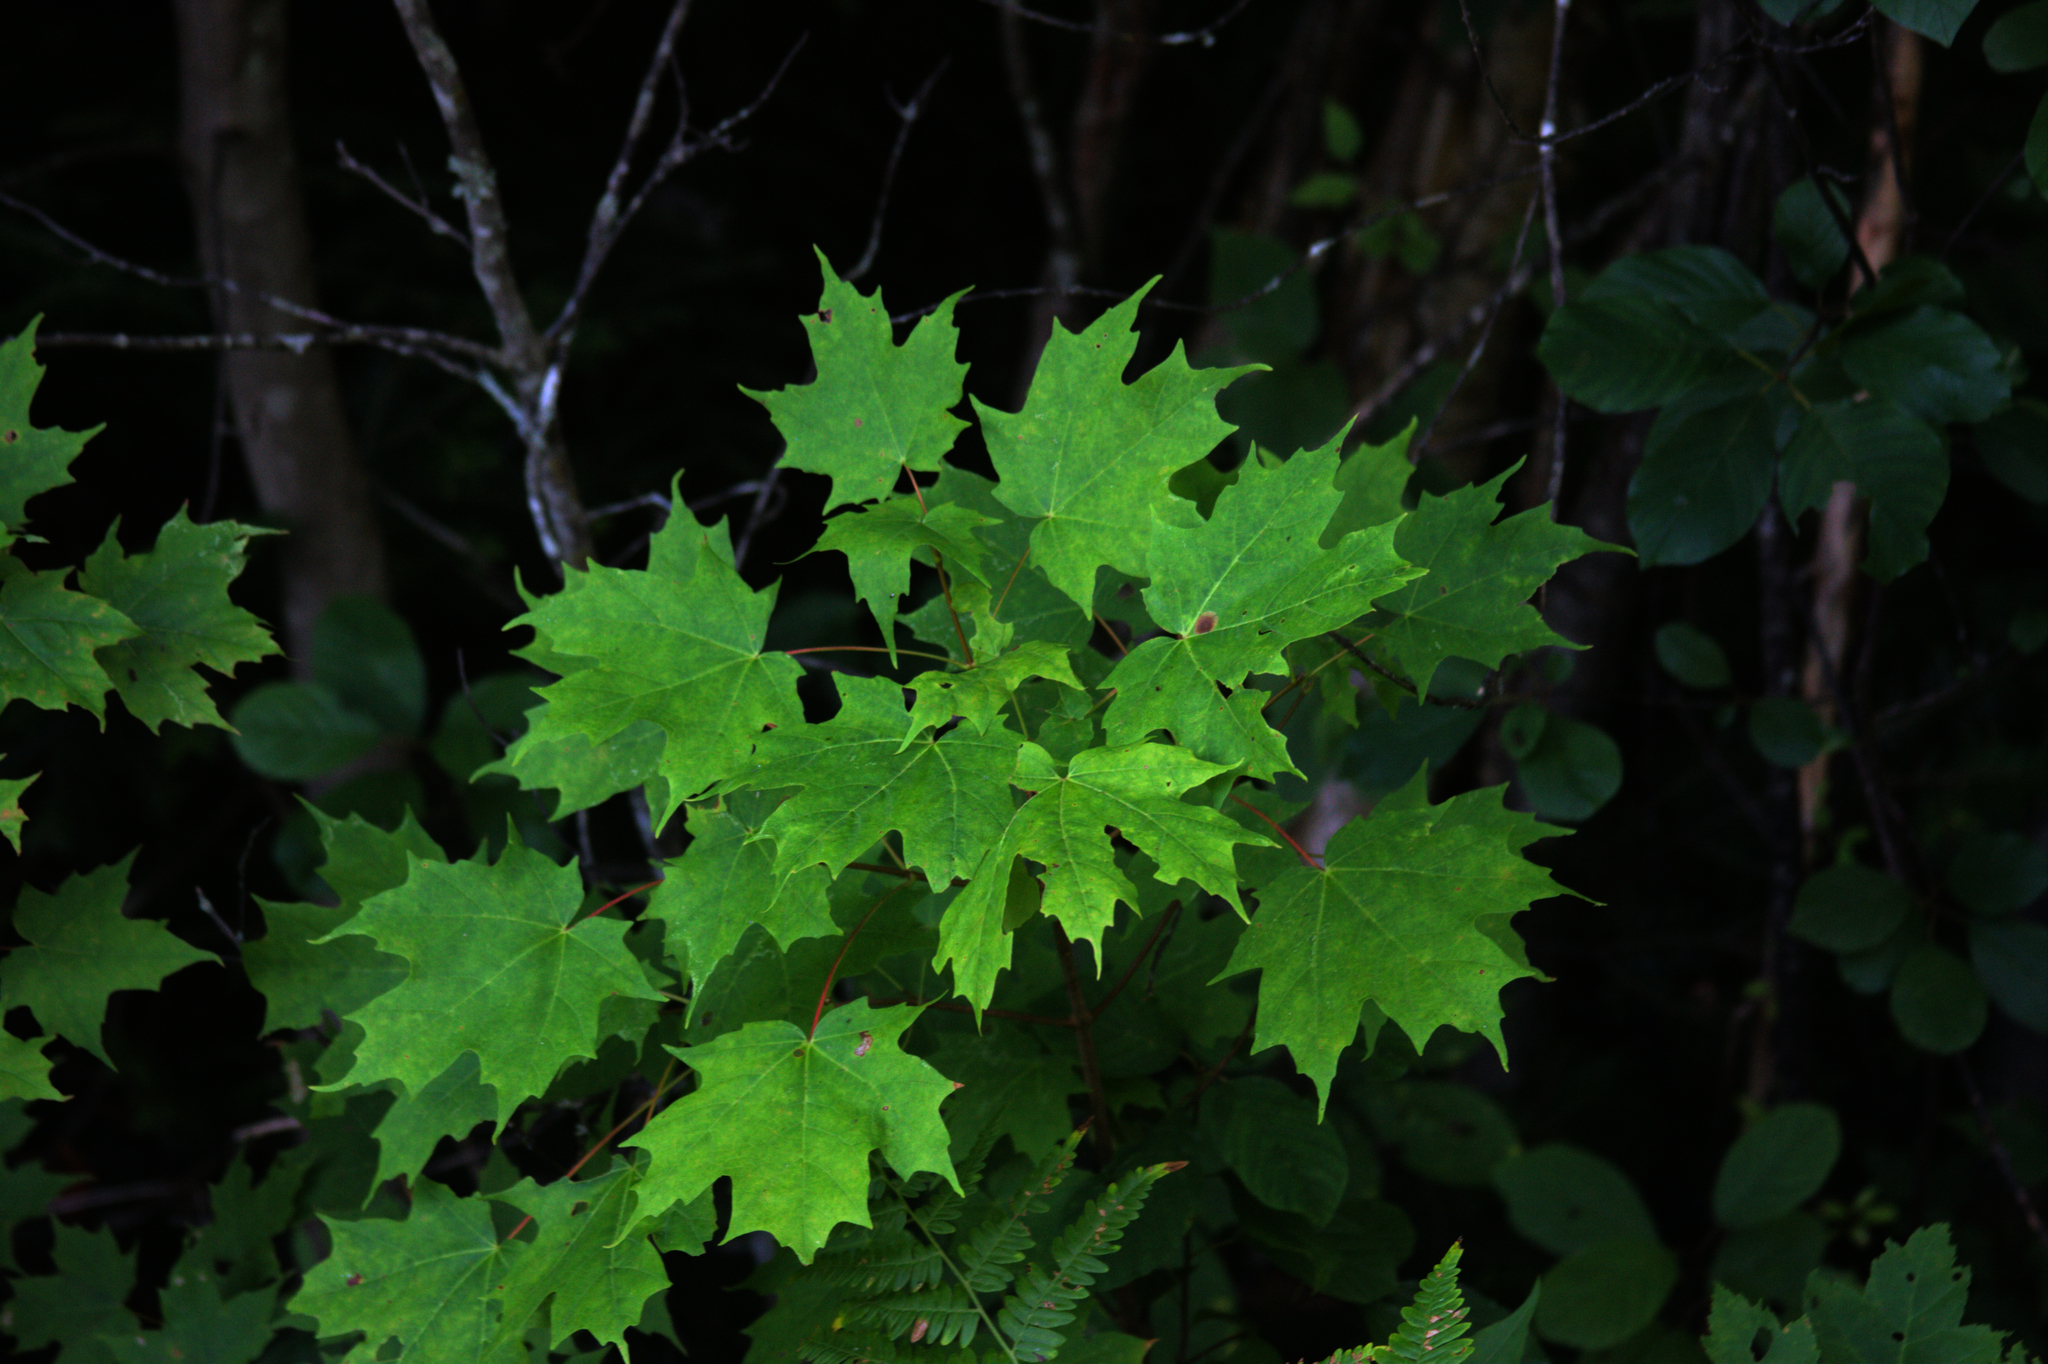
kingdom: Plantae
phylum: Tracheophyta
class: Magnoliopsida
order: Sapindales
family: Sapindaceae
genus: Acer
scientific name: Acer saccharum
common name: Sugar maple
